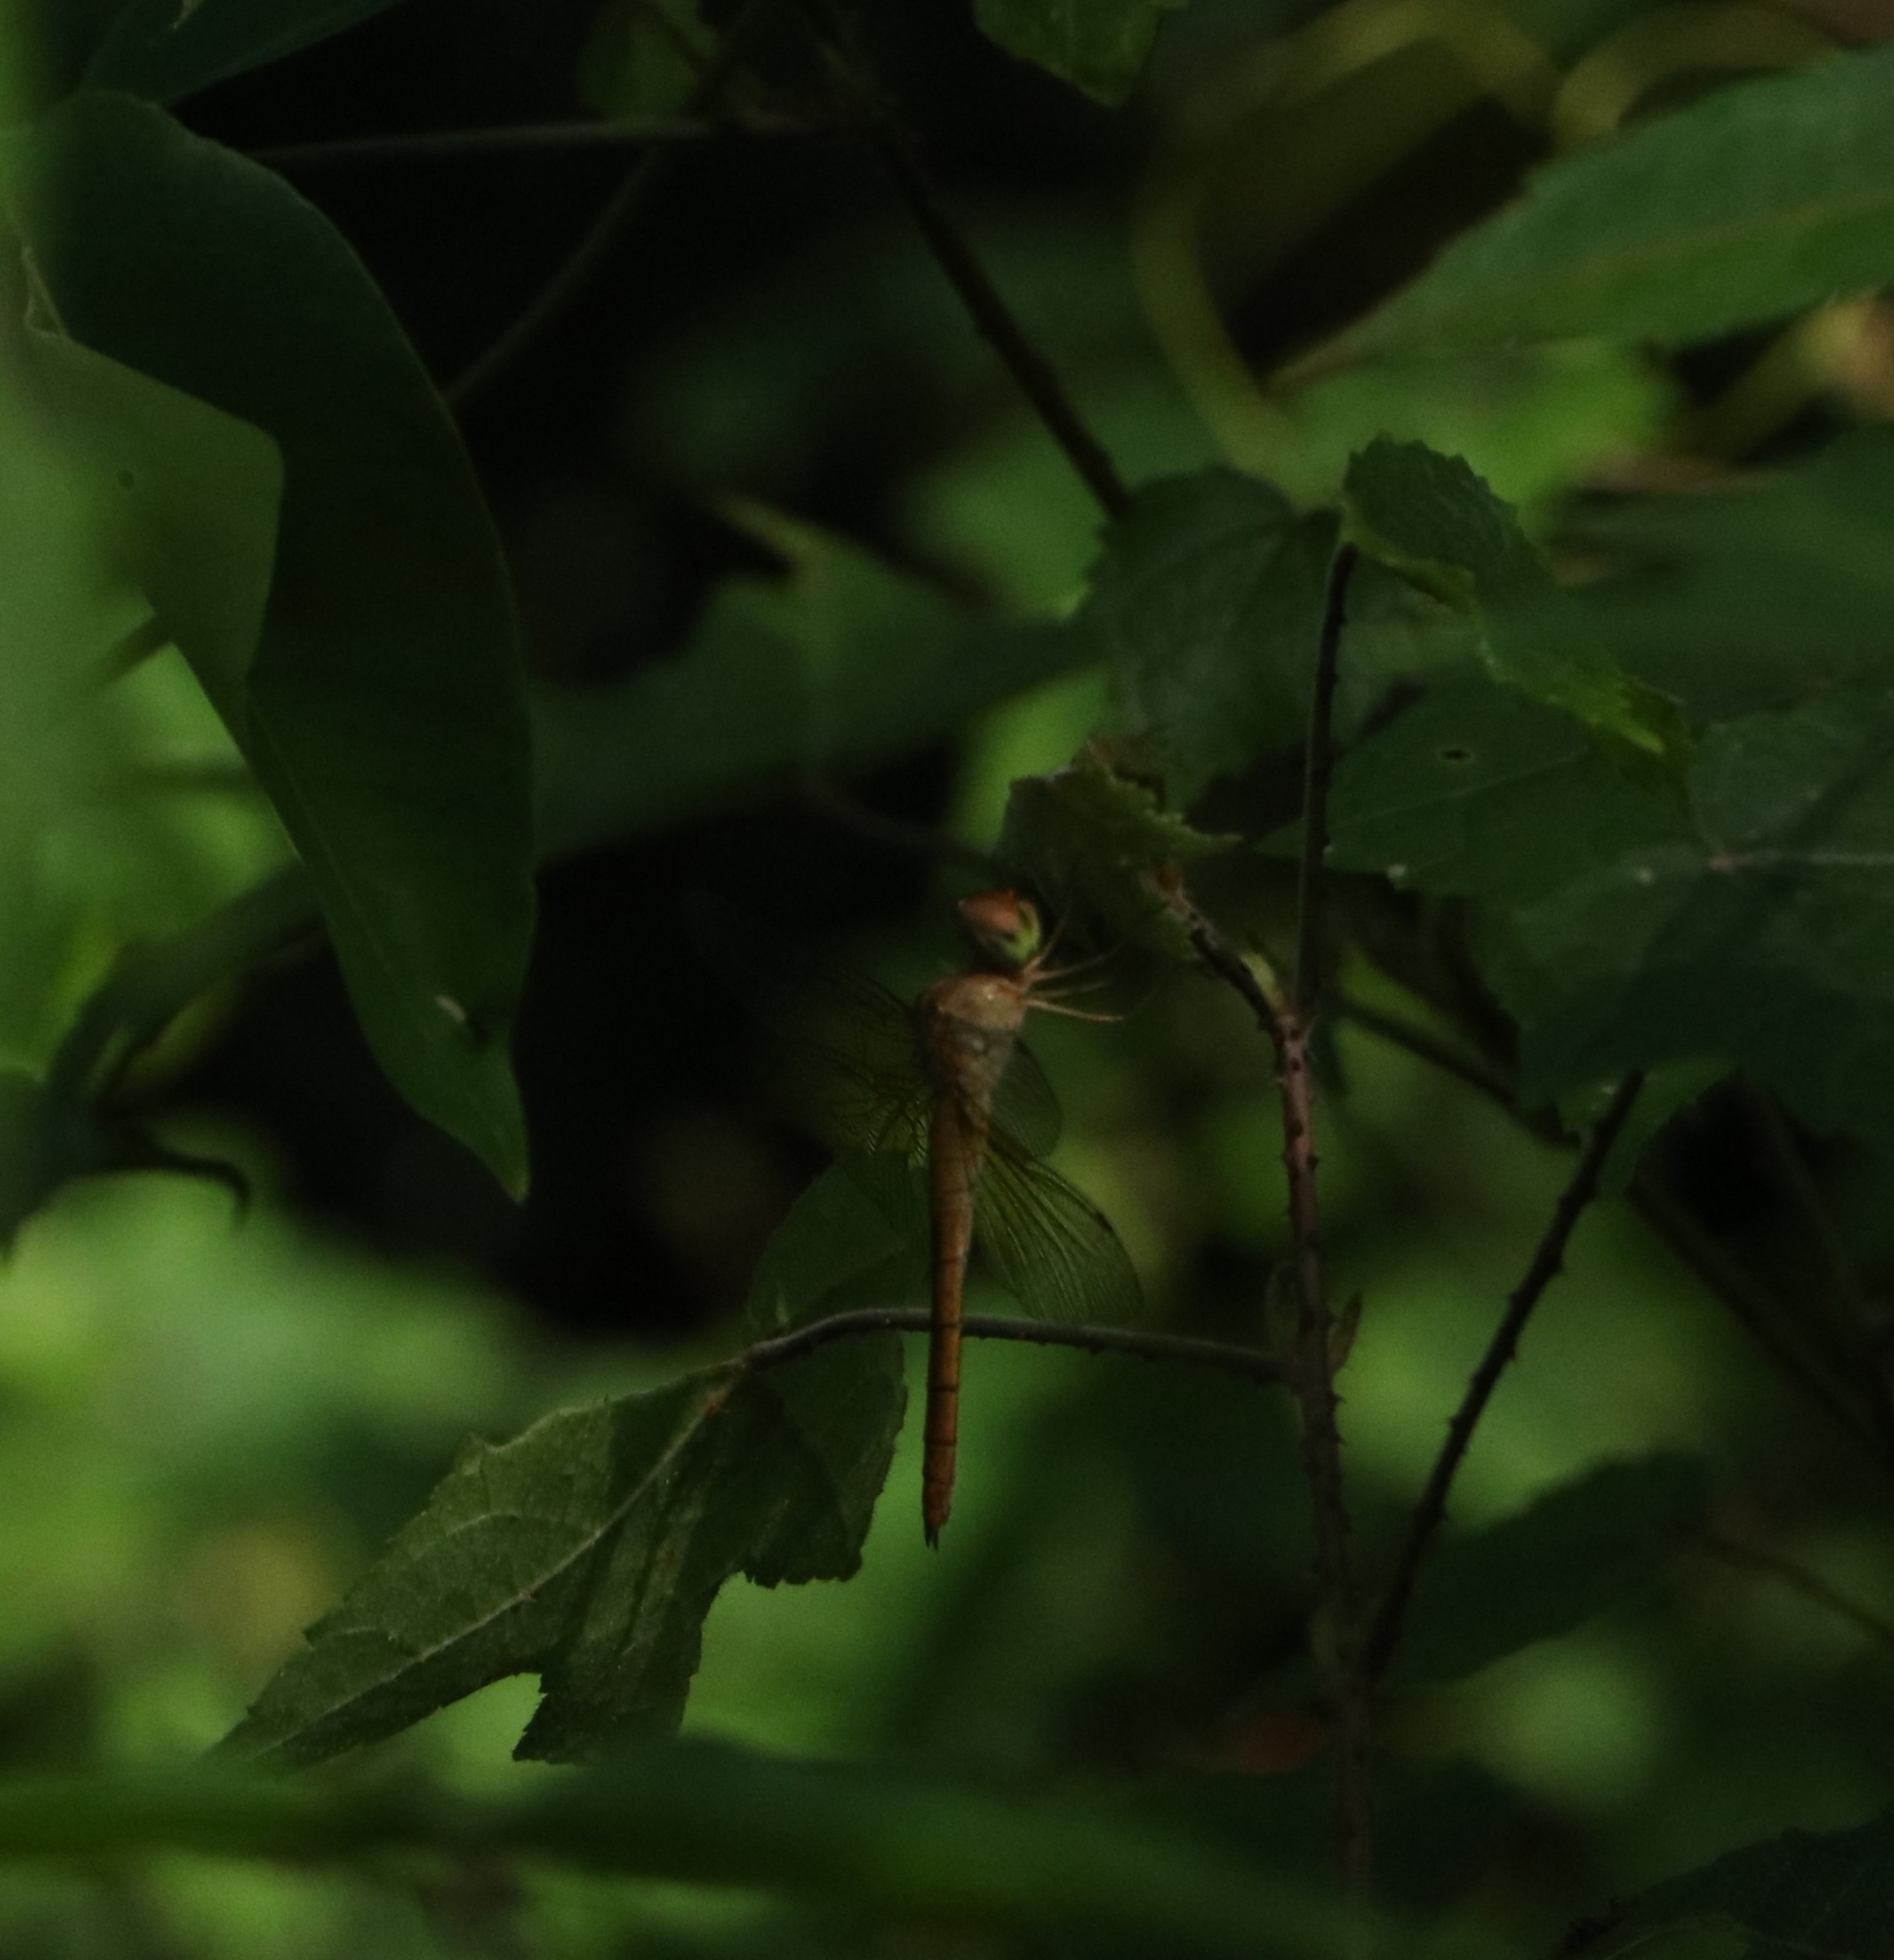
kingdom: Animalia
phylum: Arthropoda
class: Insecta
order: Odonata
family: Libellulidae
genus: Tholymis
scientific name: Tholymis tillarga
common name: Coral-tailed cloud wing
